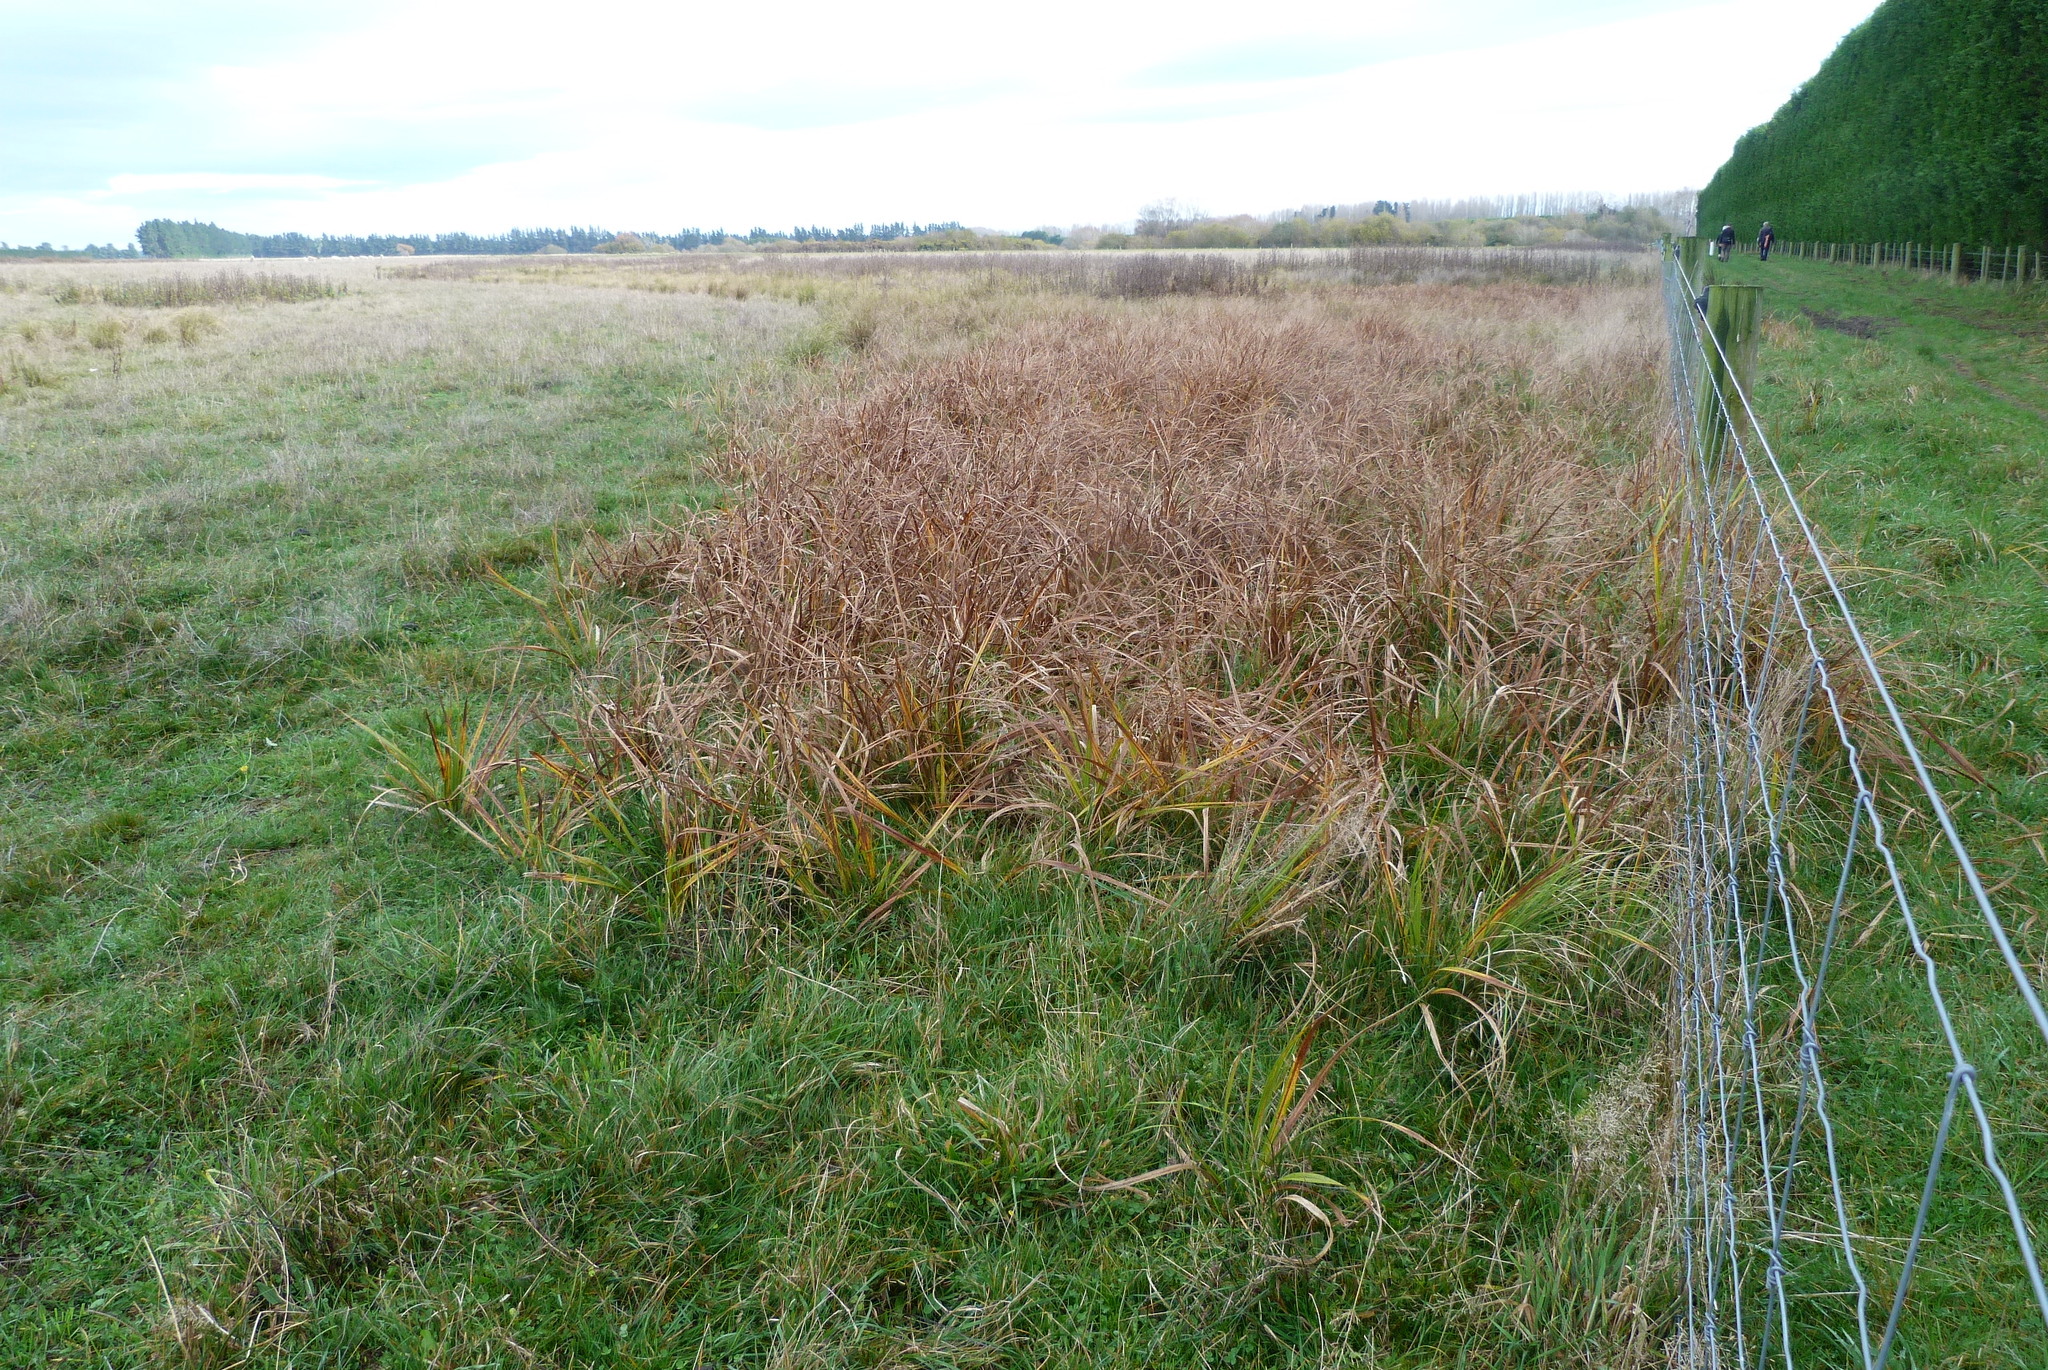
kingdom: Plantae
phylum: Tracheophyta
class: Liliopsida
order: Poales
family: Cyperaceae
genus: Carex
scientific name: Carex coriacea
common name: Rautahi
